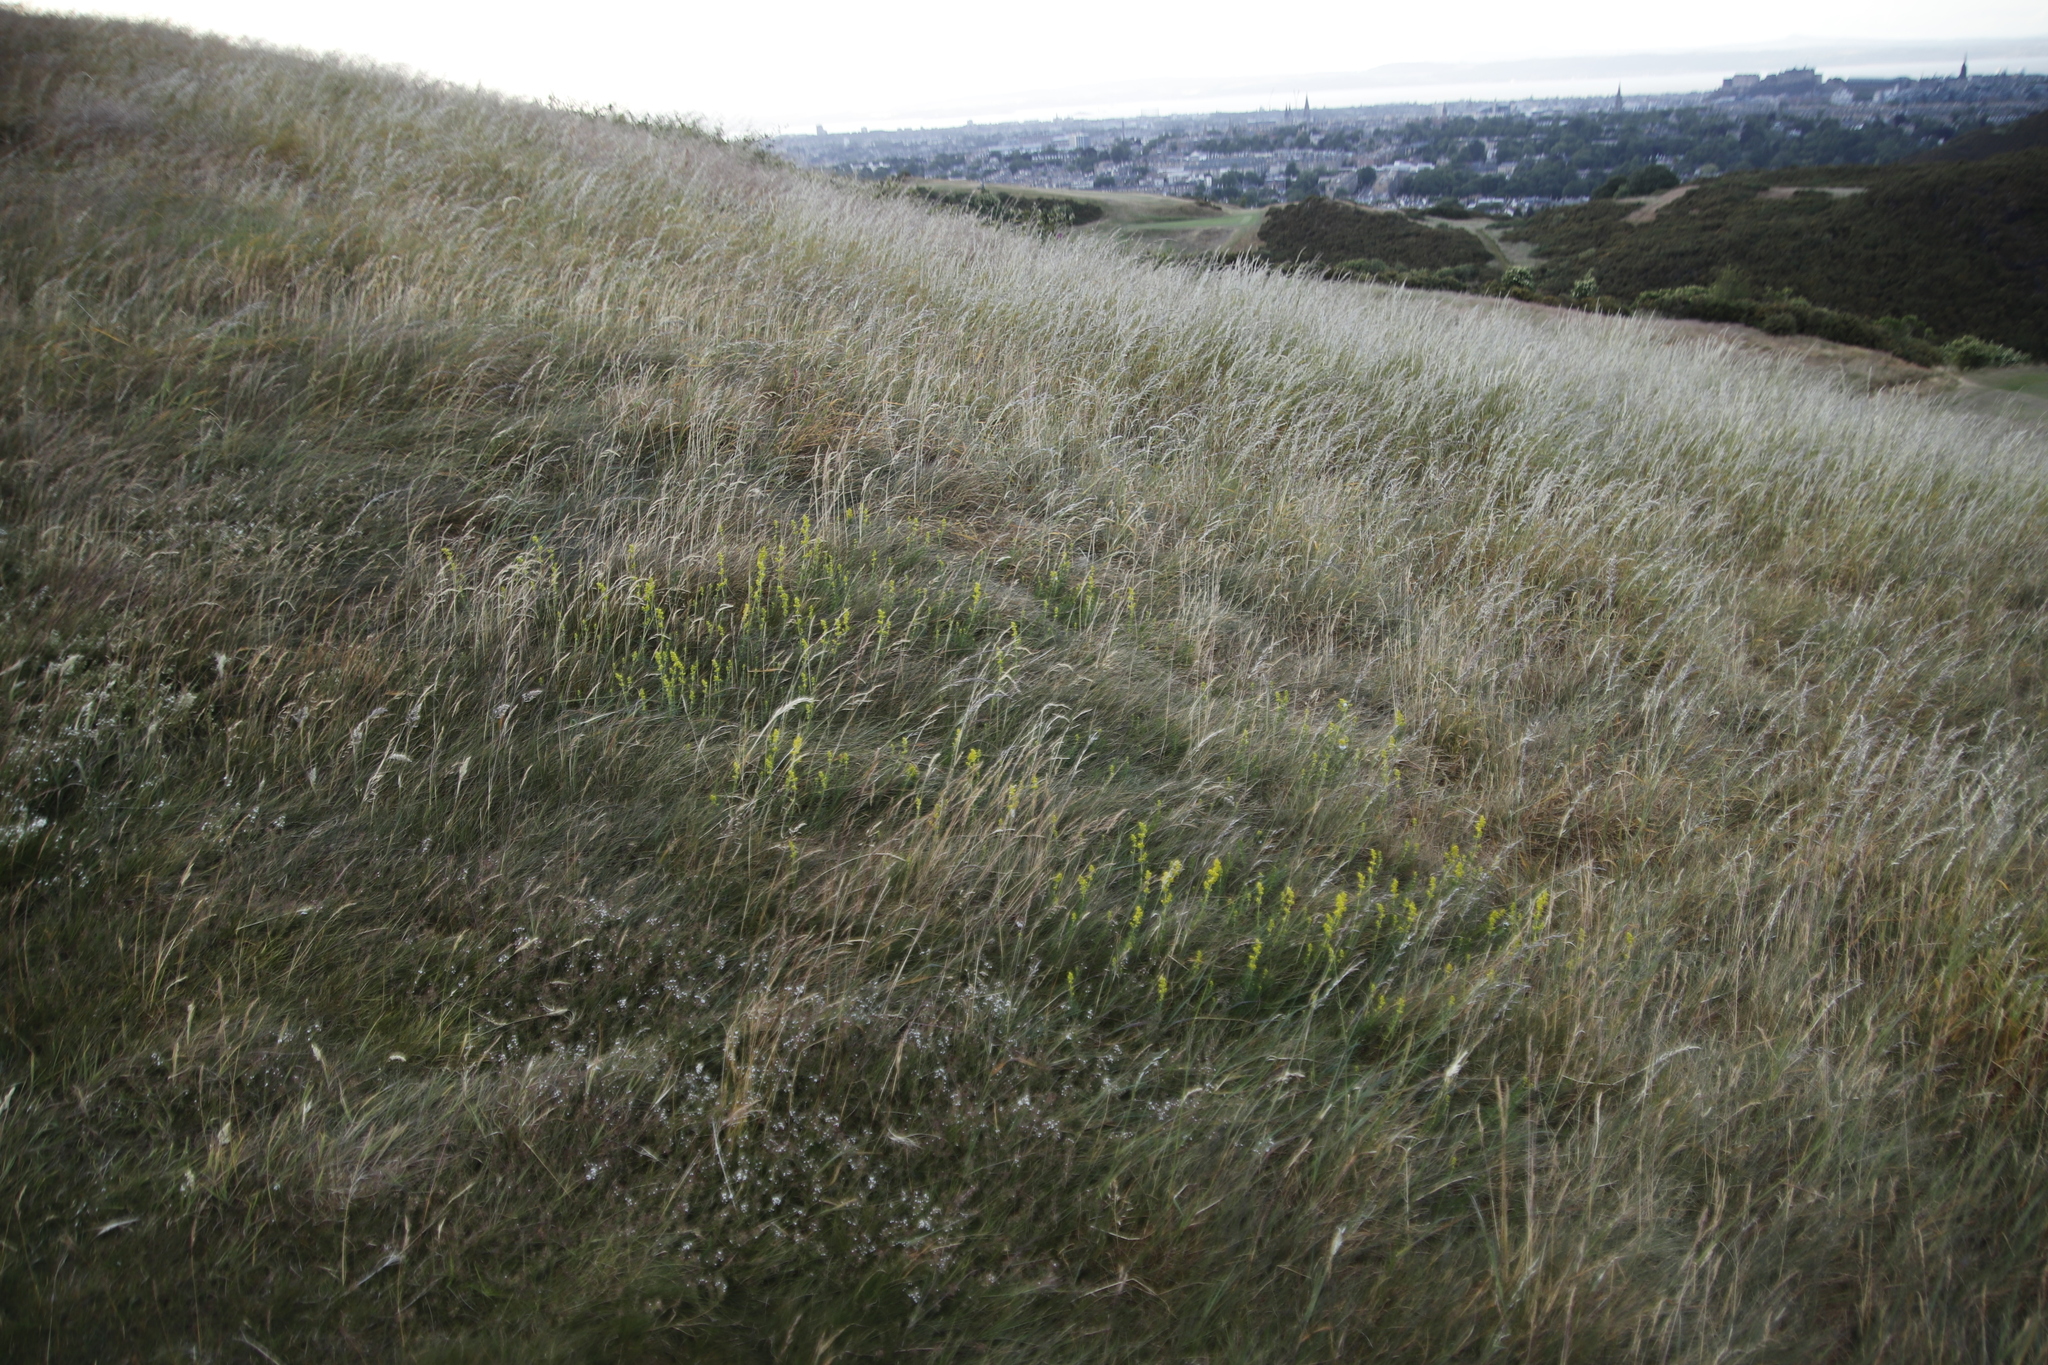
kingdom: Plantae
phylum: Tracheophyta
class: Magnoliopsida
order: Gentianales
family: Rubiaceae
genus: Galium
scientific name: Galium verum
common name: Lady's bedstraw
